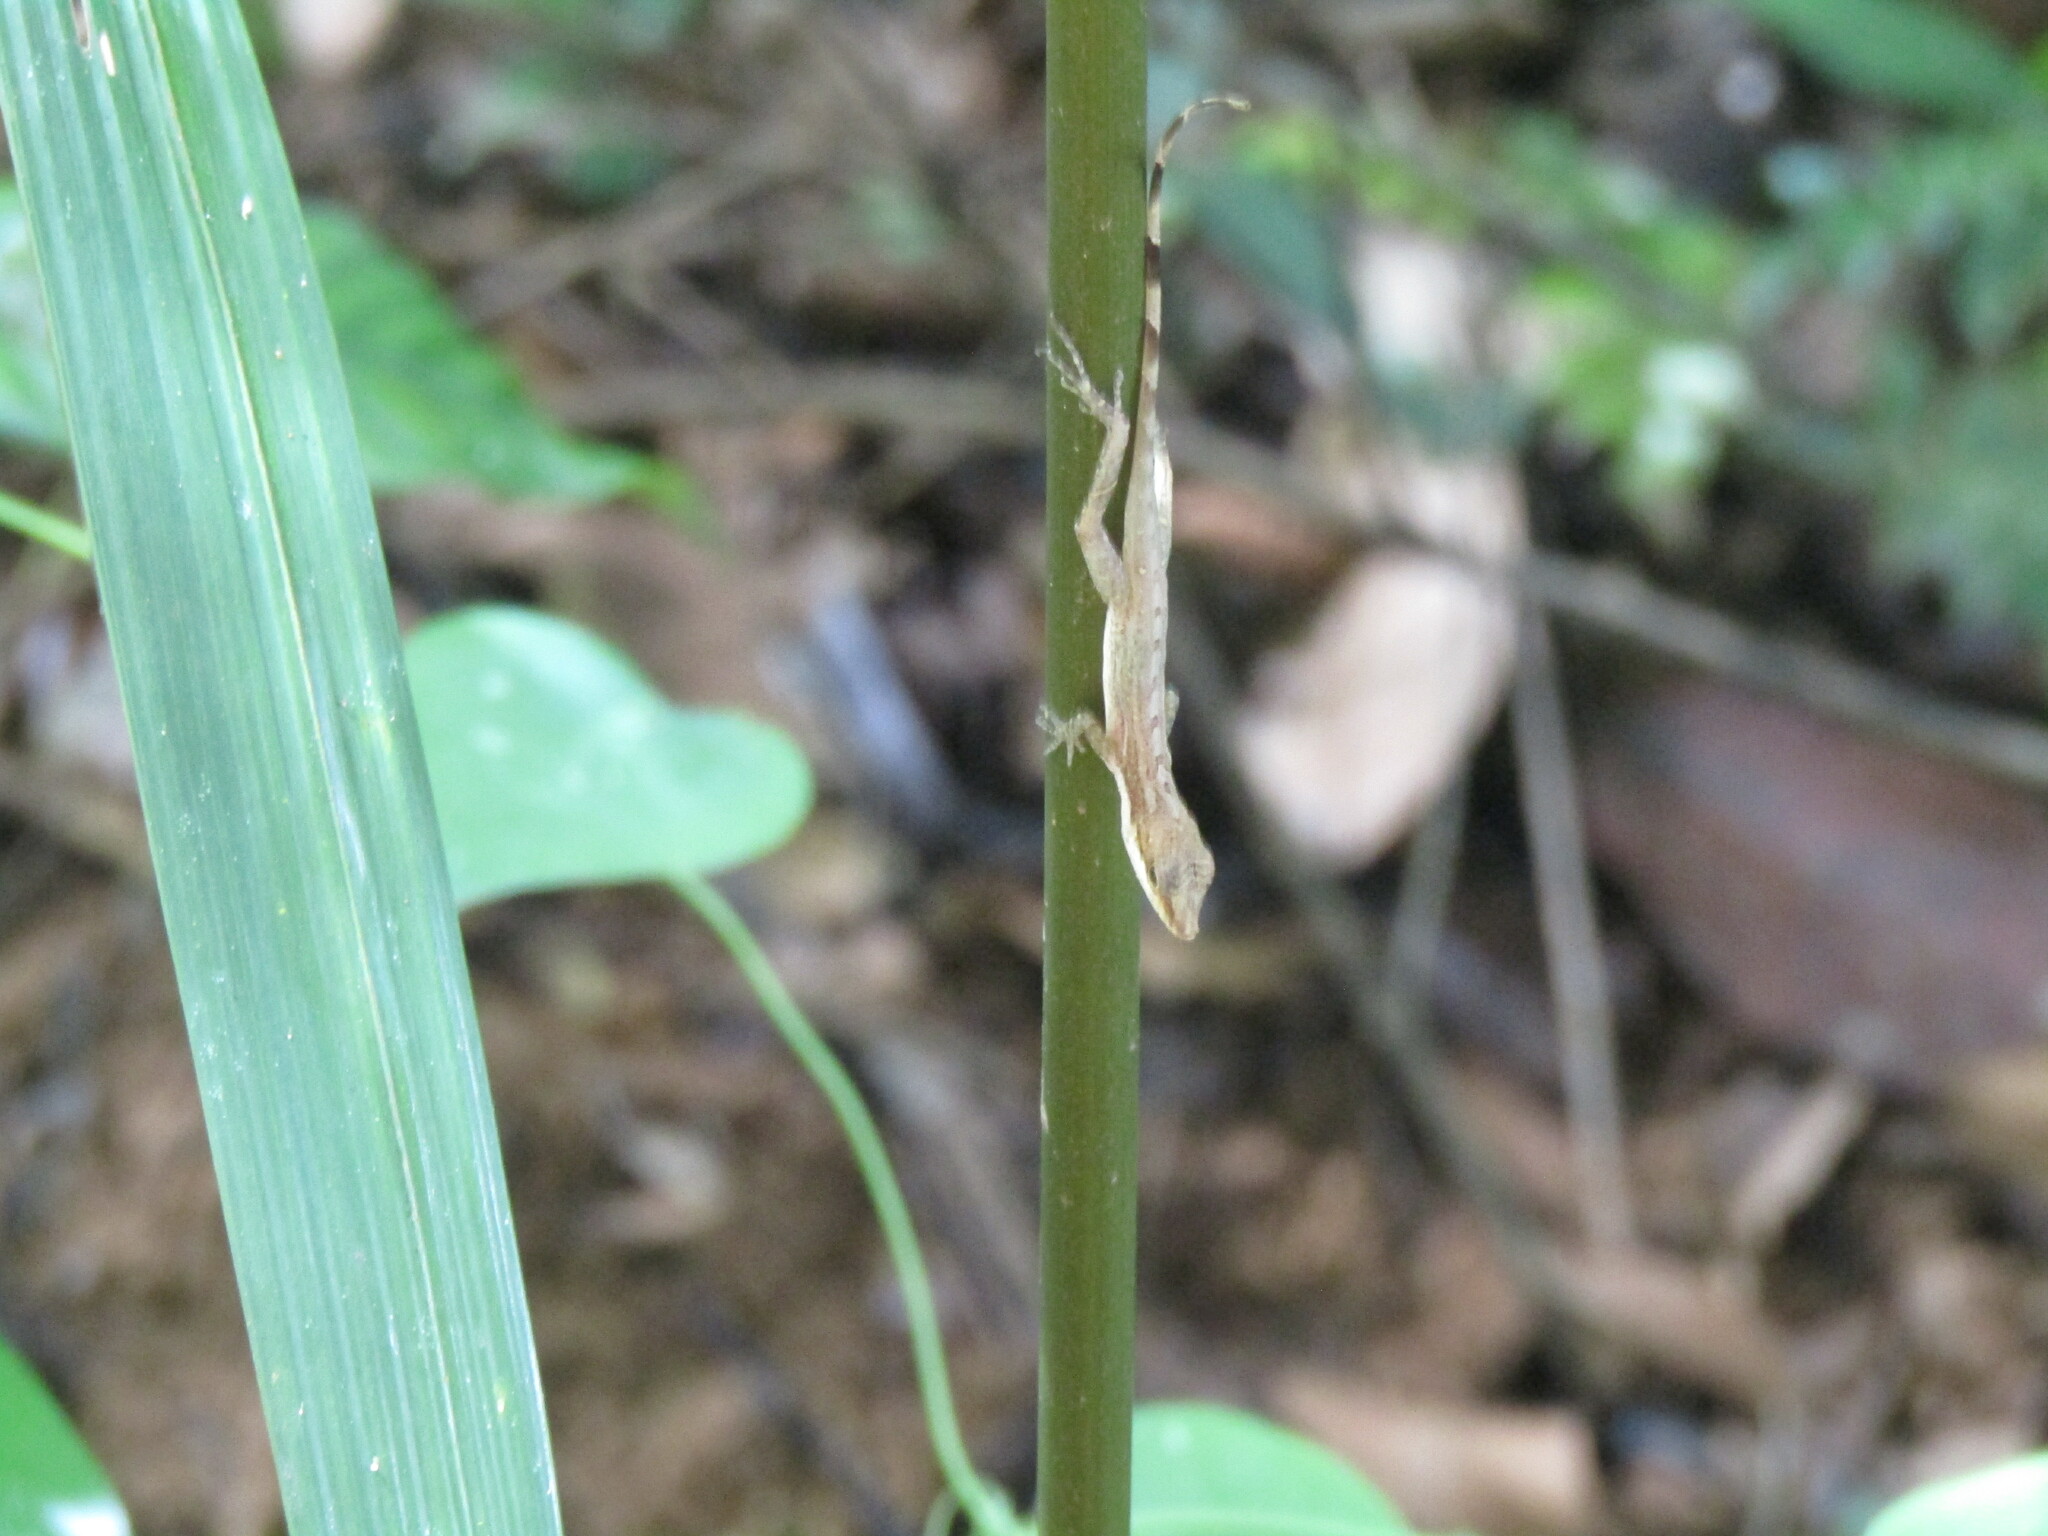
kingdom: Animalia
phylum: Chordata
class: Squamata
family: Dactyloidae
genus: Anolis
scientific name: Anolis apletophallus
